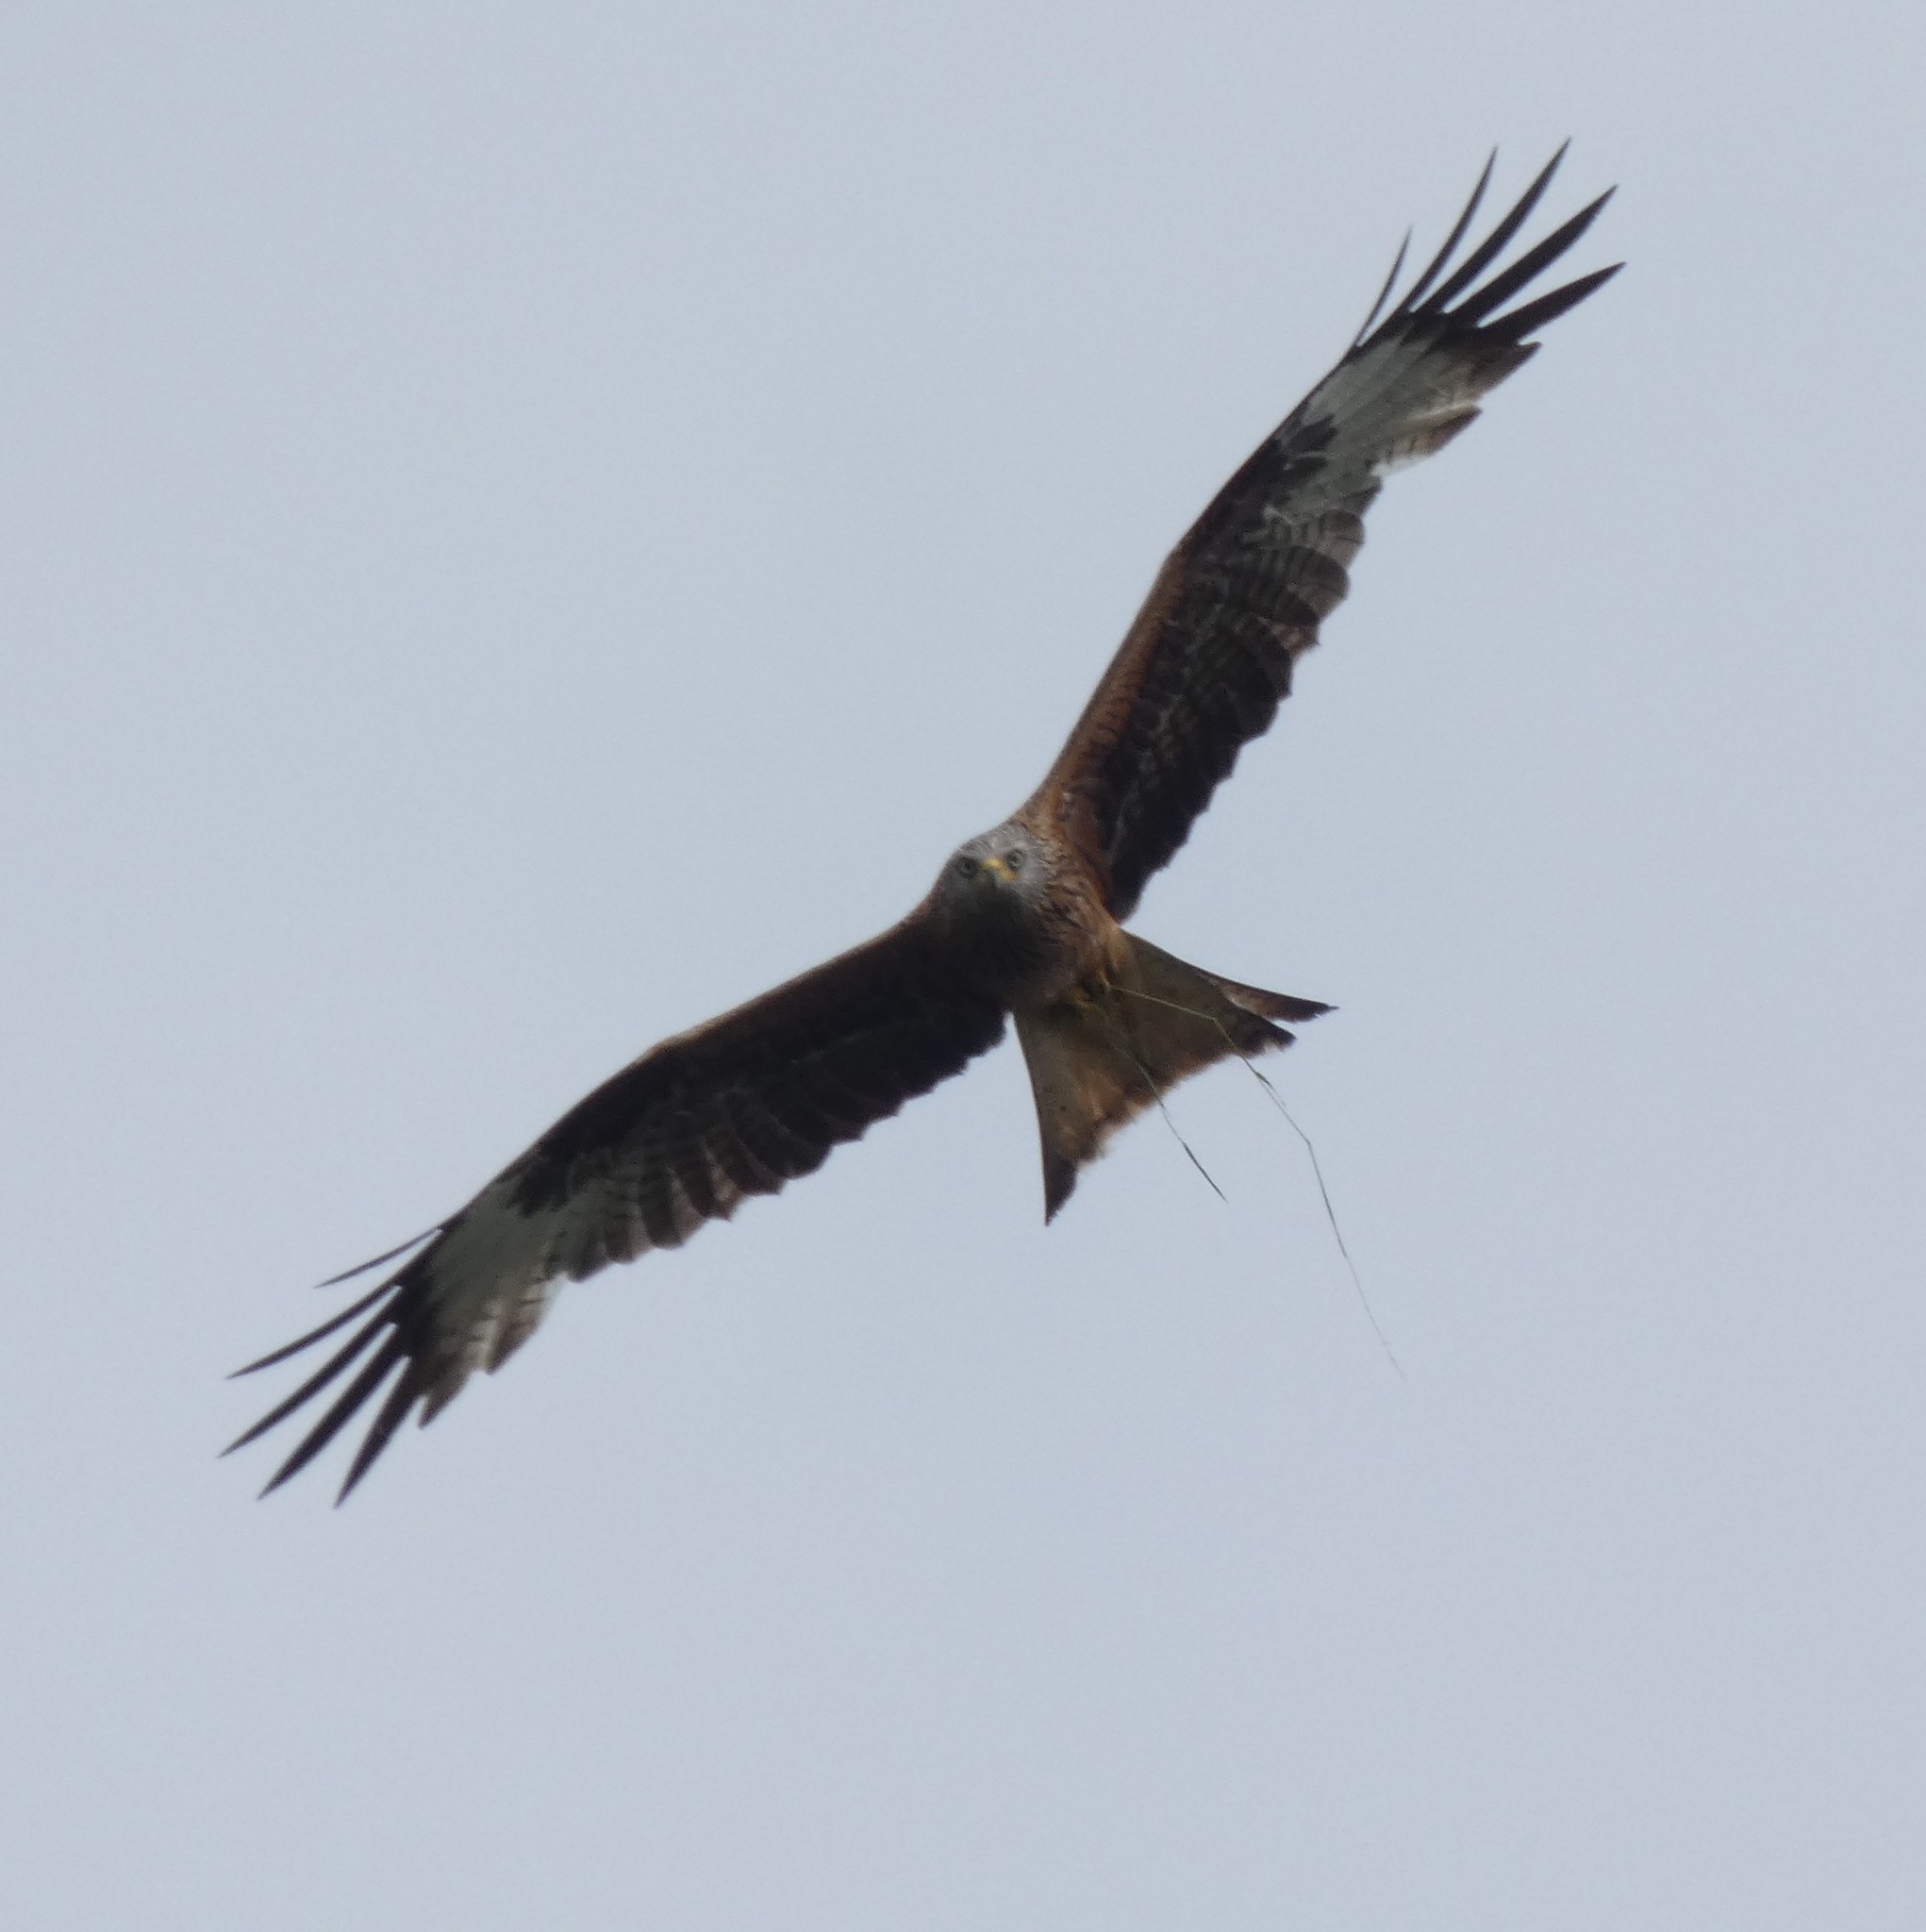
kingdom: Animalia
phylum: Chordata
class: Aves
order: Accipitriformes
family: Accipitridae
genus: Milvus
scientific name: Milvus milvus
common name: Red kite
